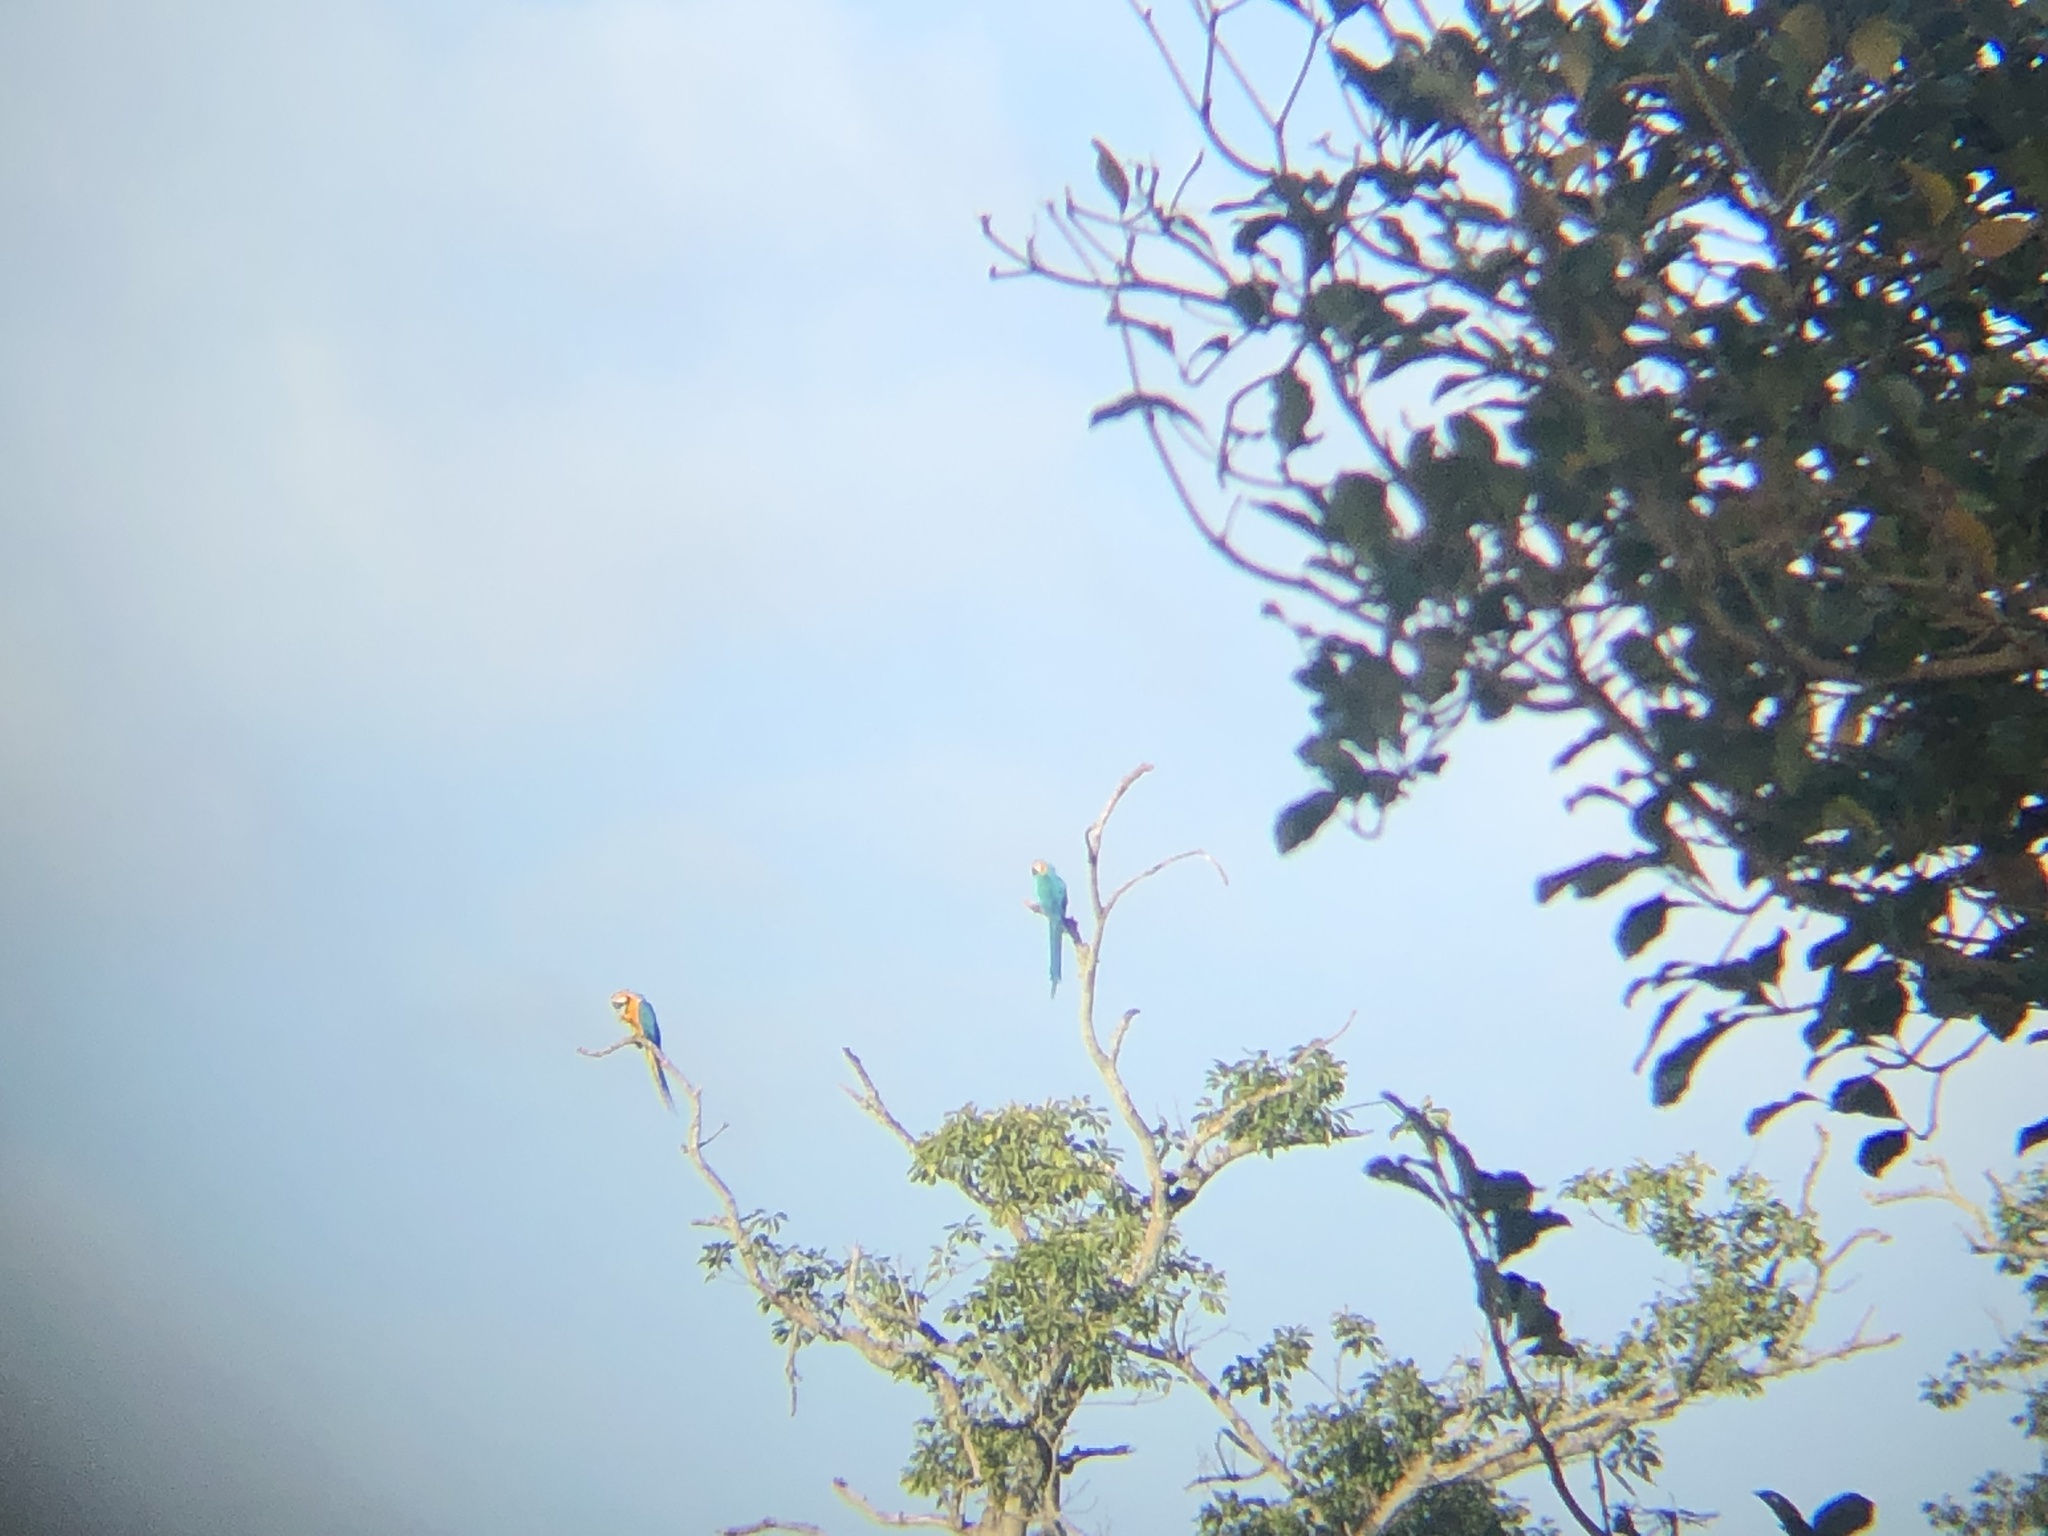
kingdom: Animalia
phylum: Chordata
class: Aves
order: Psittaciformes
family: Psittacidae
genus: Ara
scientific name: Ara ararauna
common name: Blue-and-yellow macaw
